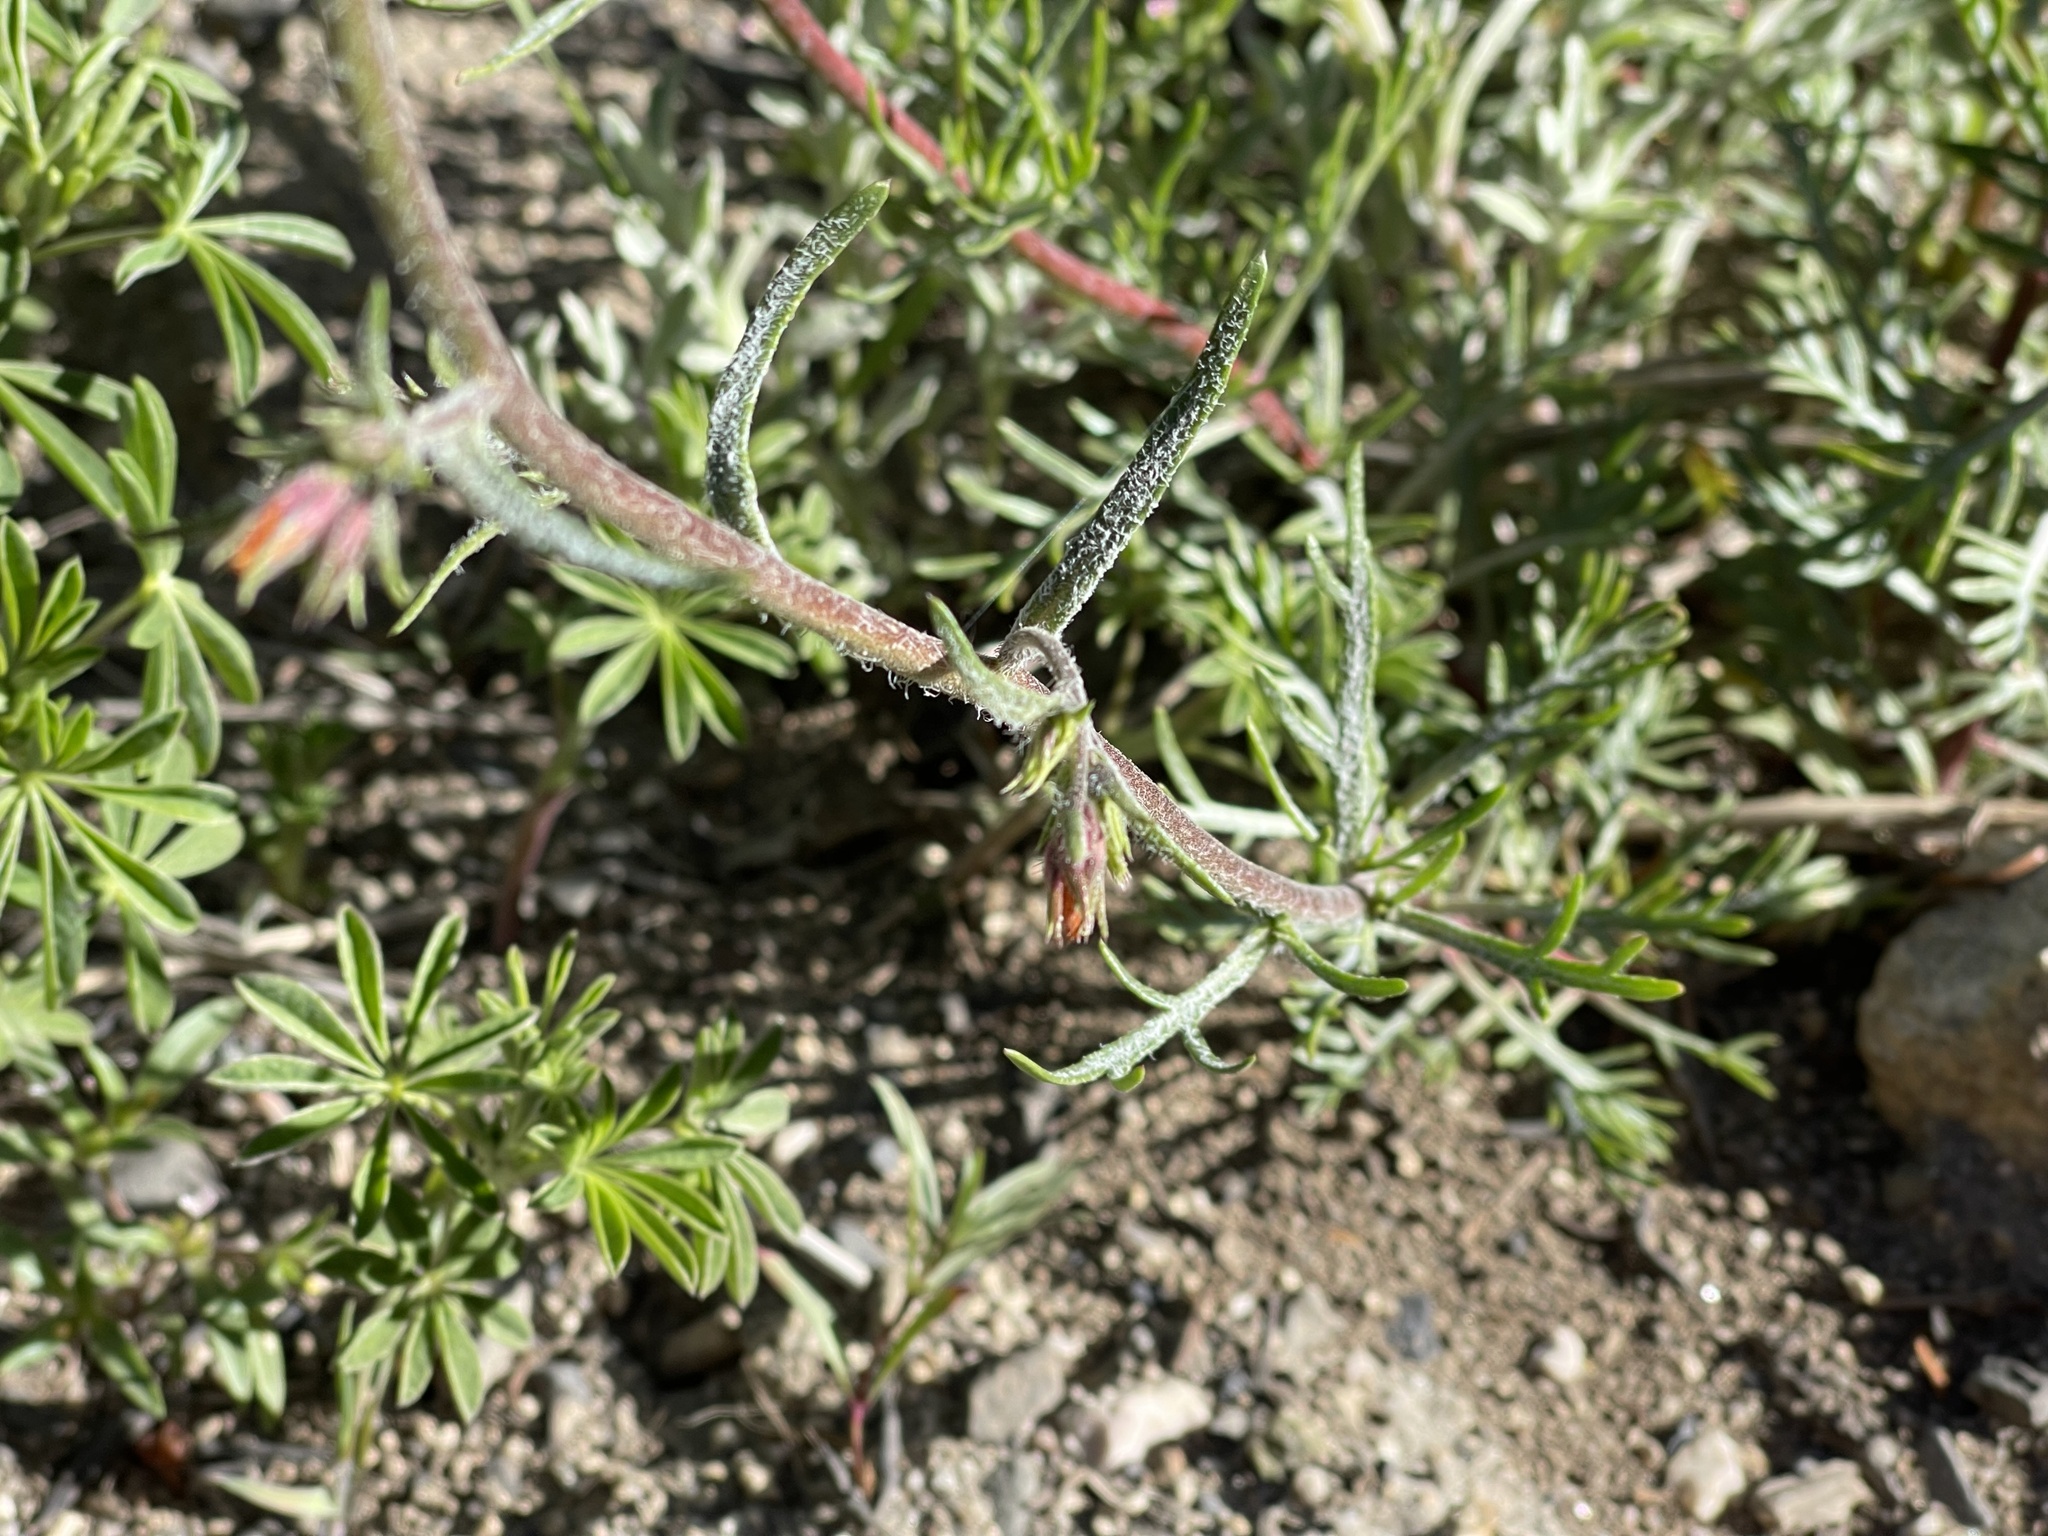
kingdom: Plantae
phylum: Tracheophyta
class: Magnoliopsida
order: Ericales
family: Polemoniaceae
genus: Ipomopsis
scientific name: Ipomopsis aggregata
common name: Scarlet gilia
